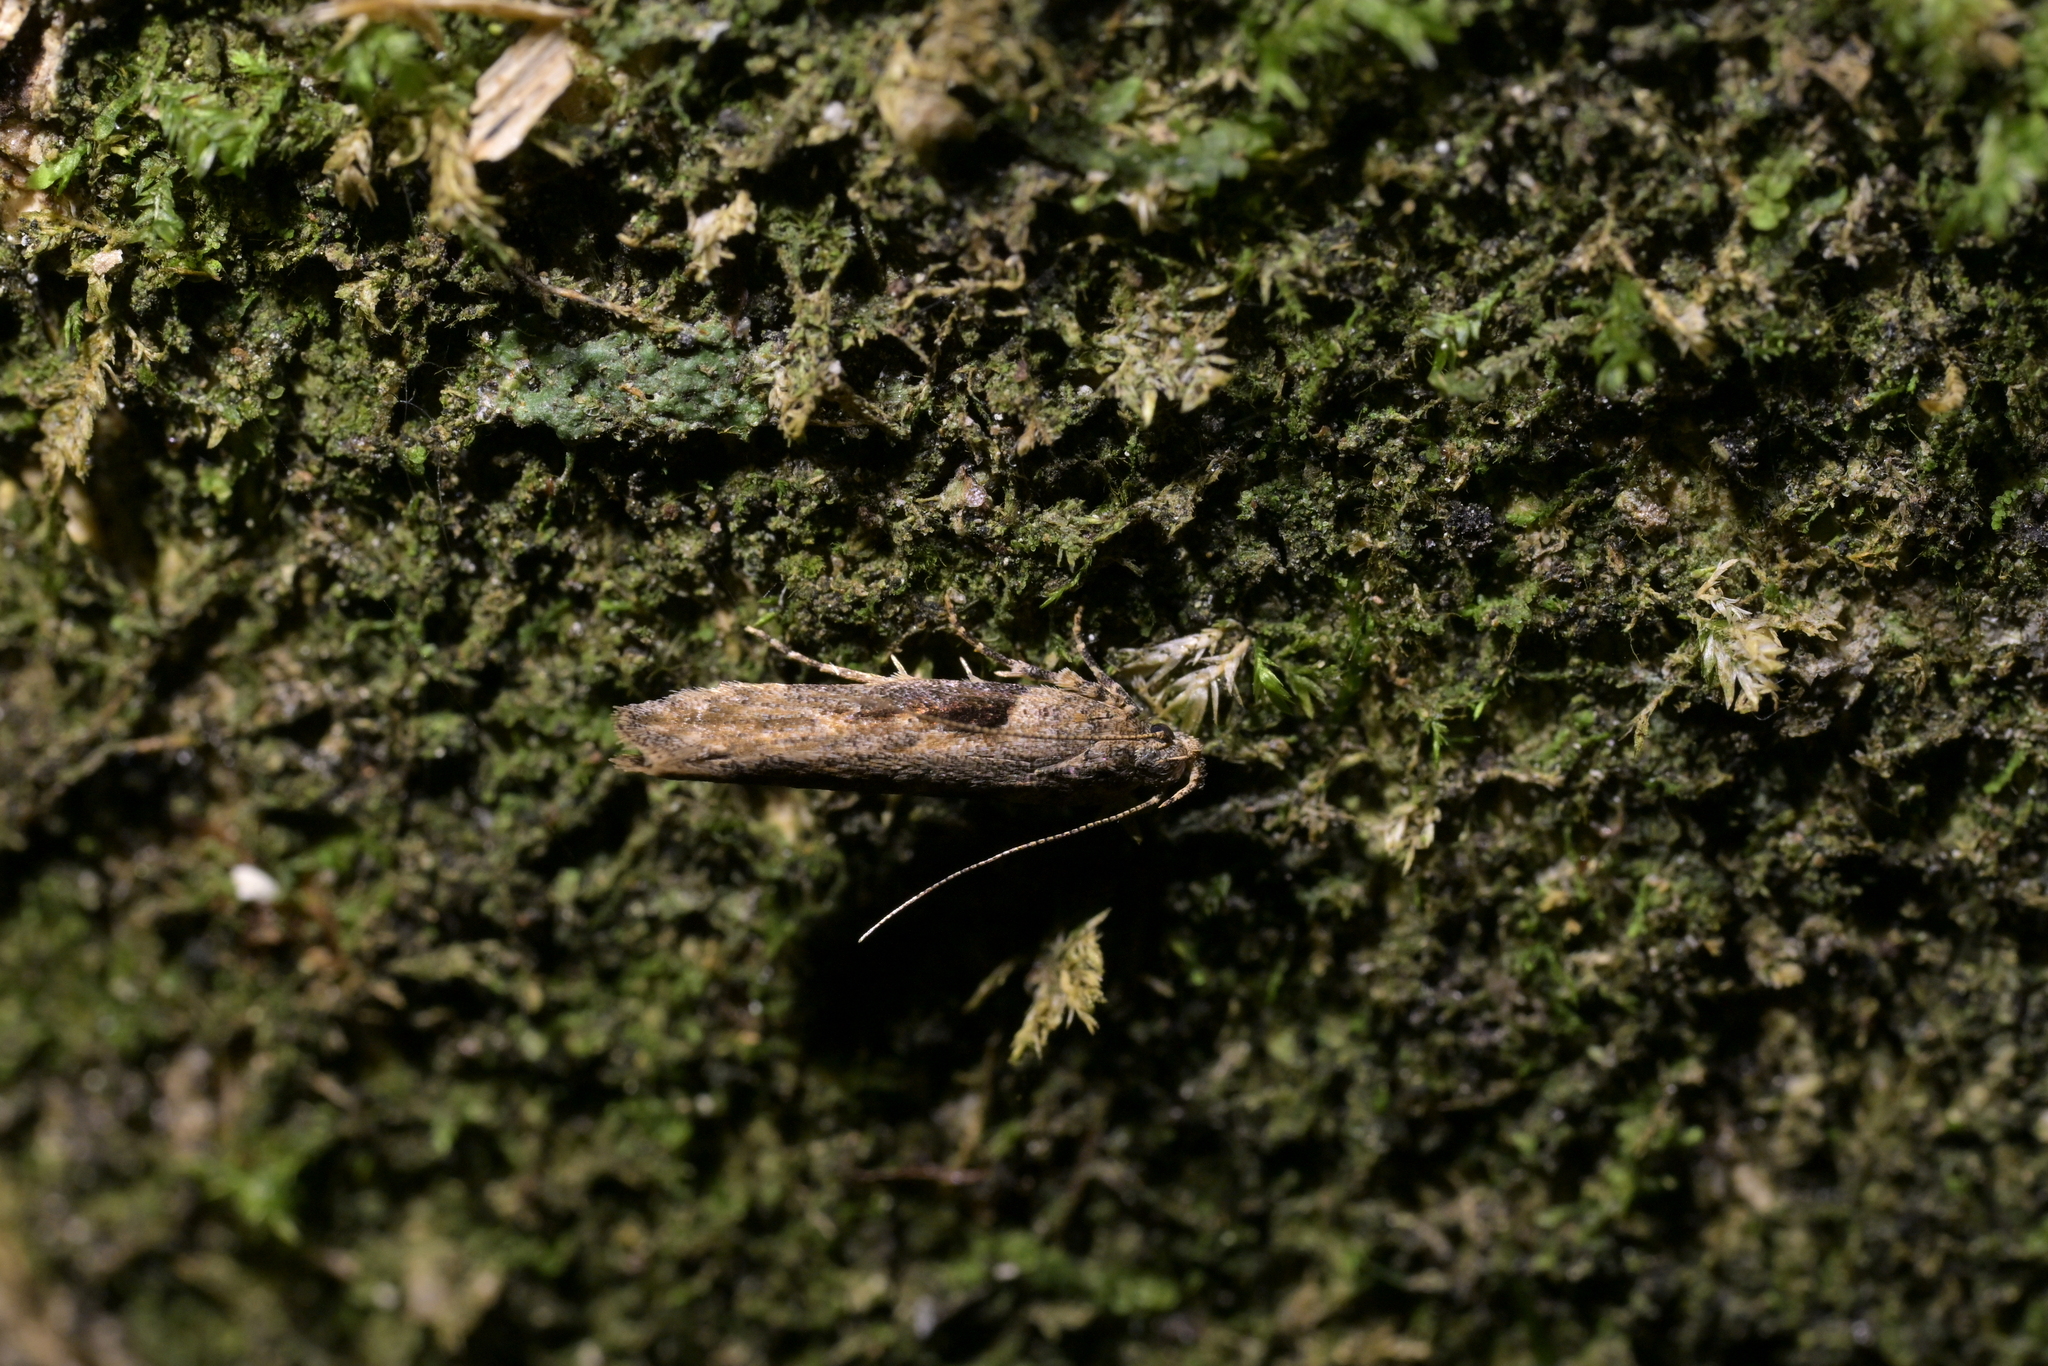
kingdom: Animalia
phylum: Arthropoda
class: Insecta
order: Lepidoptera
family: Gelechiidae
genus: Symmetrischema
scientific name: Symmetrischema tangolias
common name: Moth
